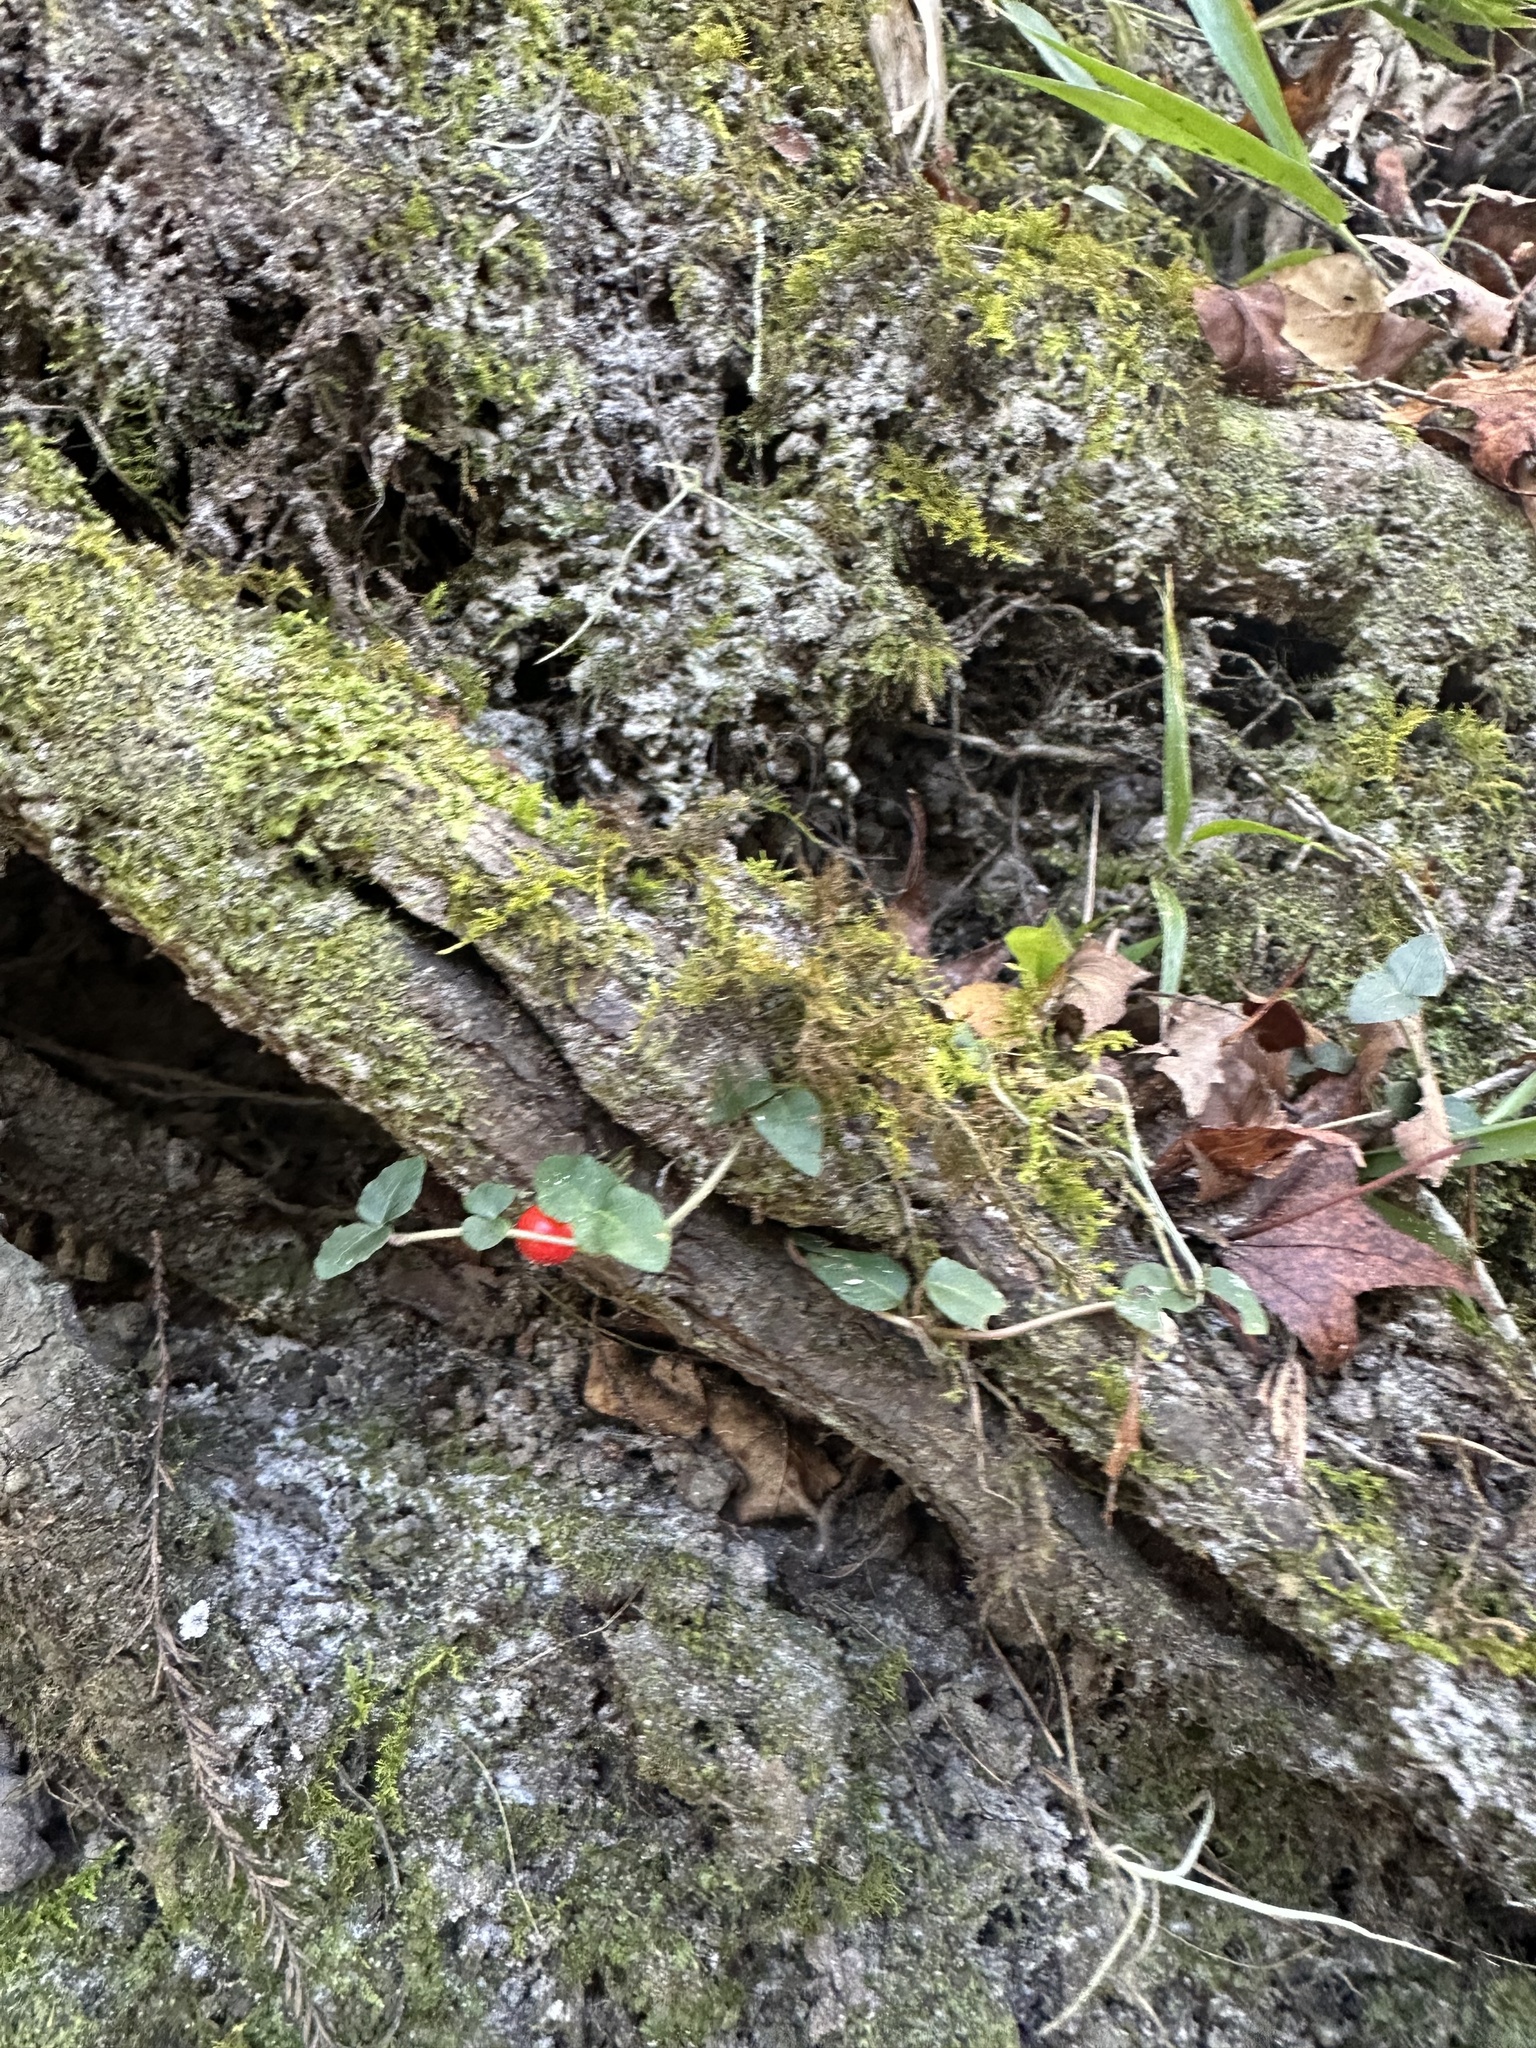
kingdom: Plantae
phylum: Tracheophyta
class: Magnoliopsida
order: Gentianales
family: Rubiaceae
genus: Mitchella
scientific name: Mitchella repens
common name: Partridge-berry
